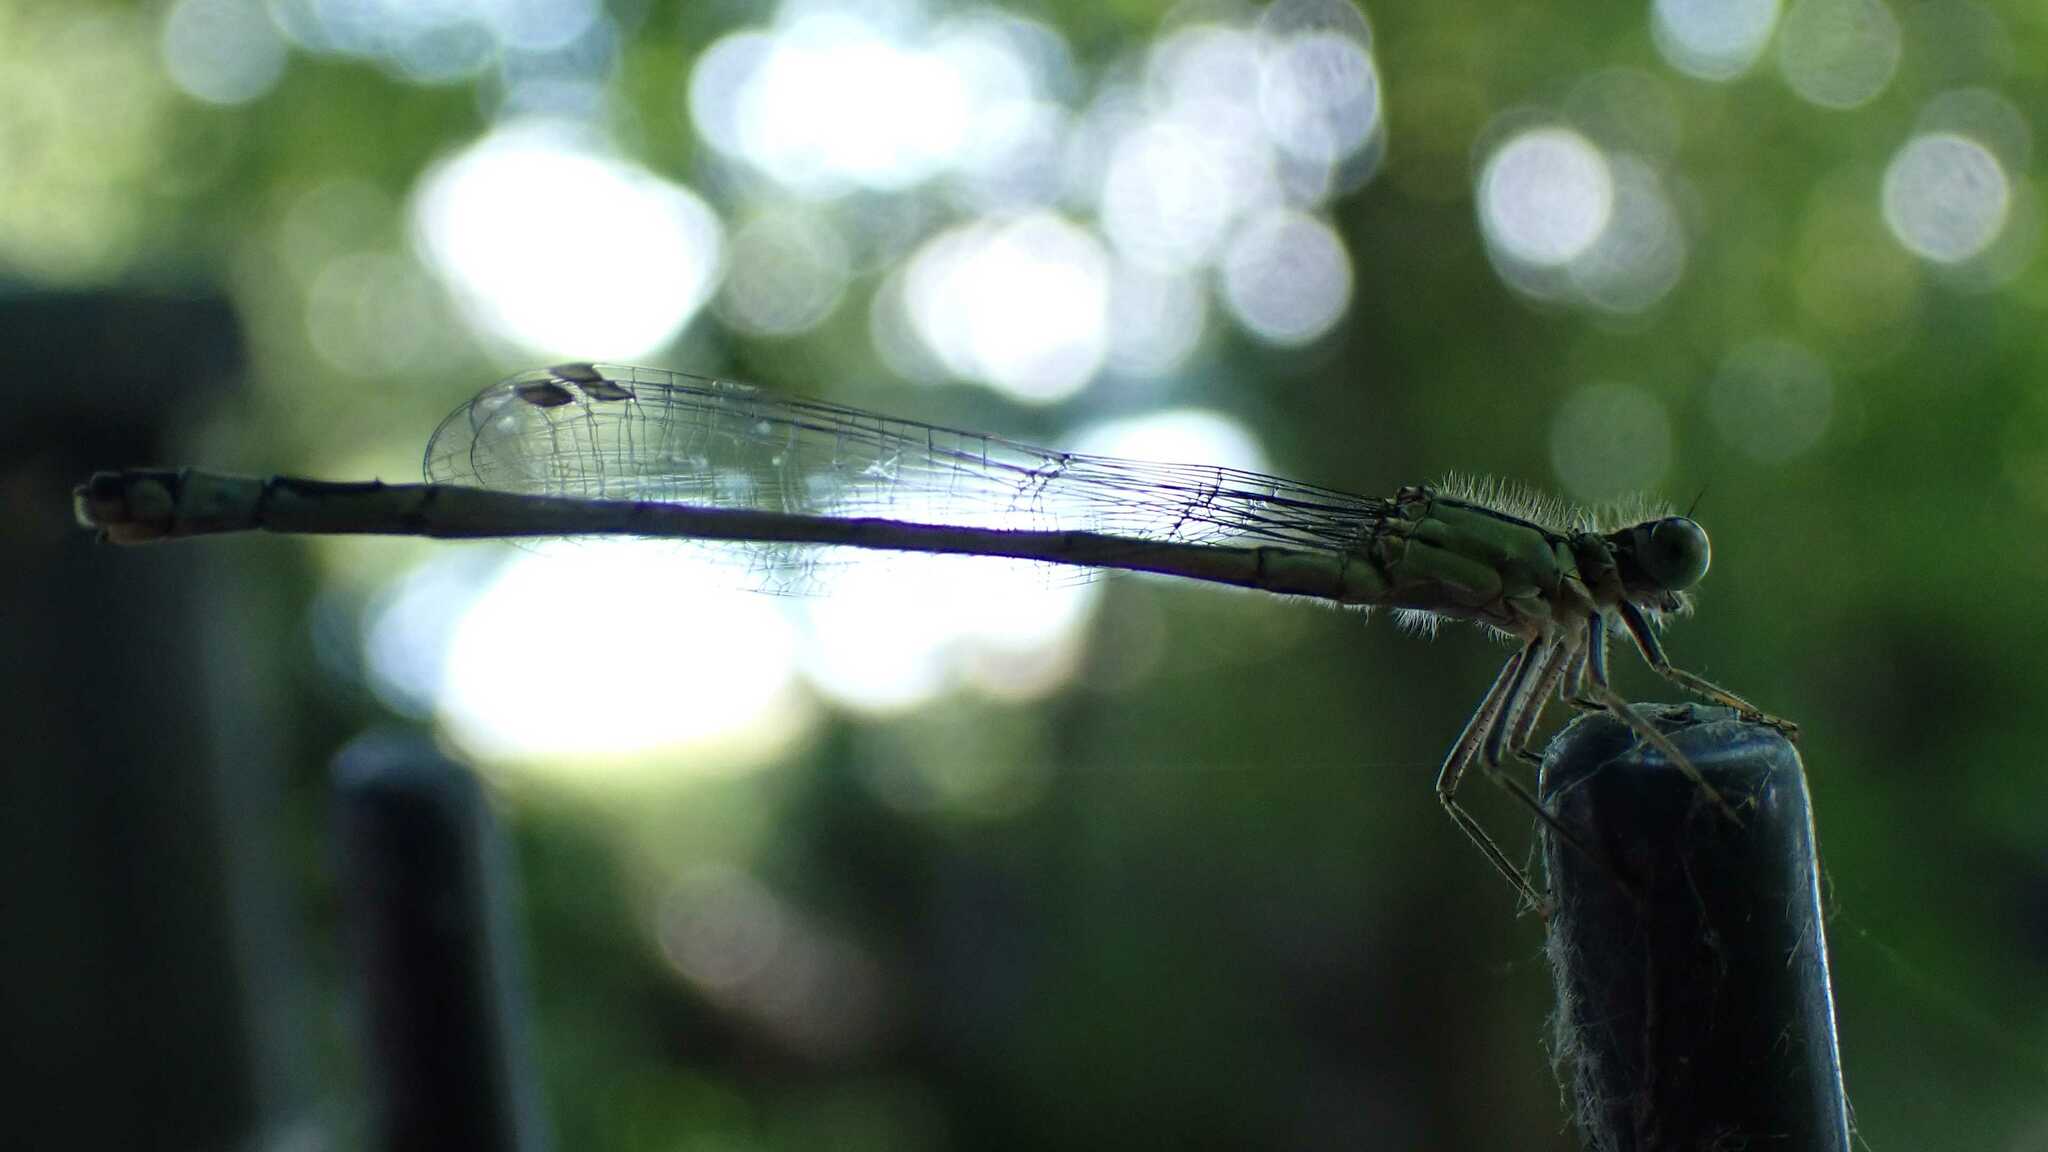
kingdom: Animalia
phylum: Arthropoda
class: Insecta
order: Odonata
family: Coenagrionidae
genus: Ischnura
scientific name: Ischnura elegans
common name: Blue-tailed damselfly
